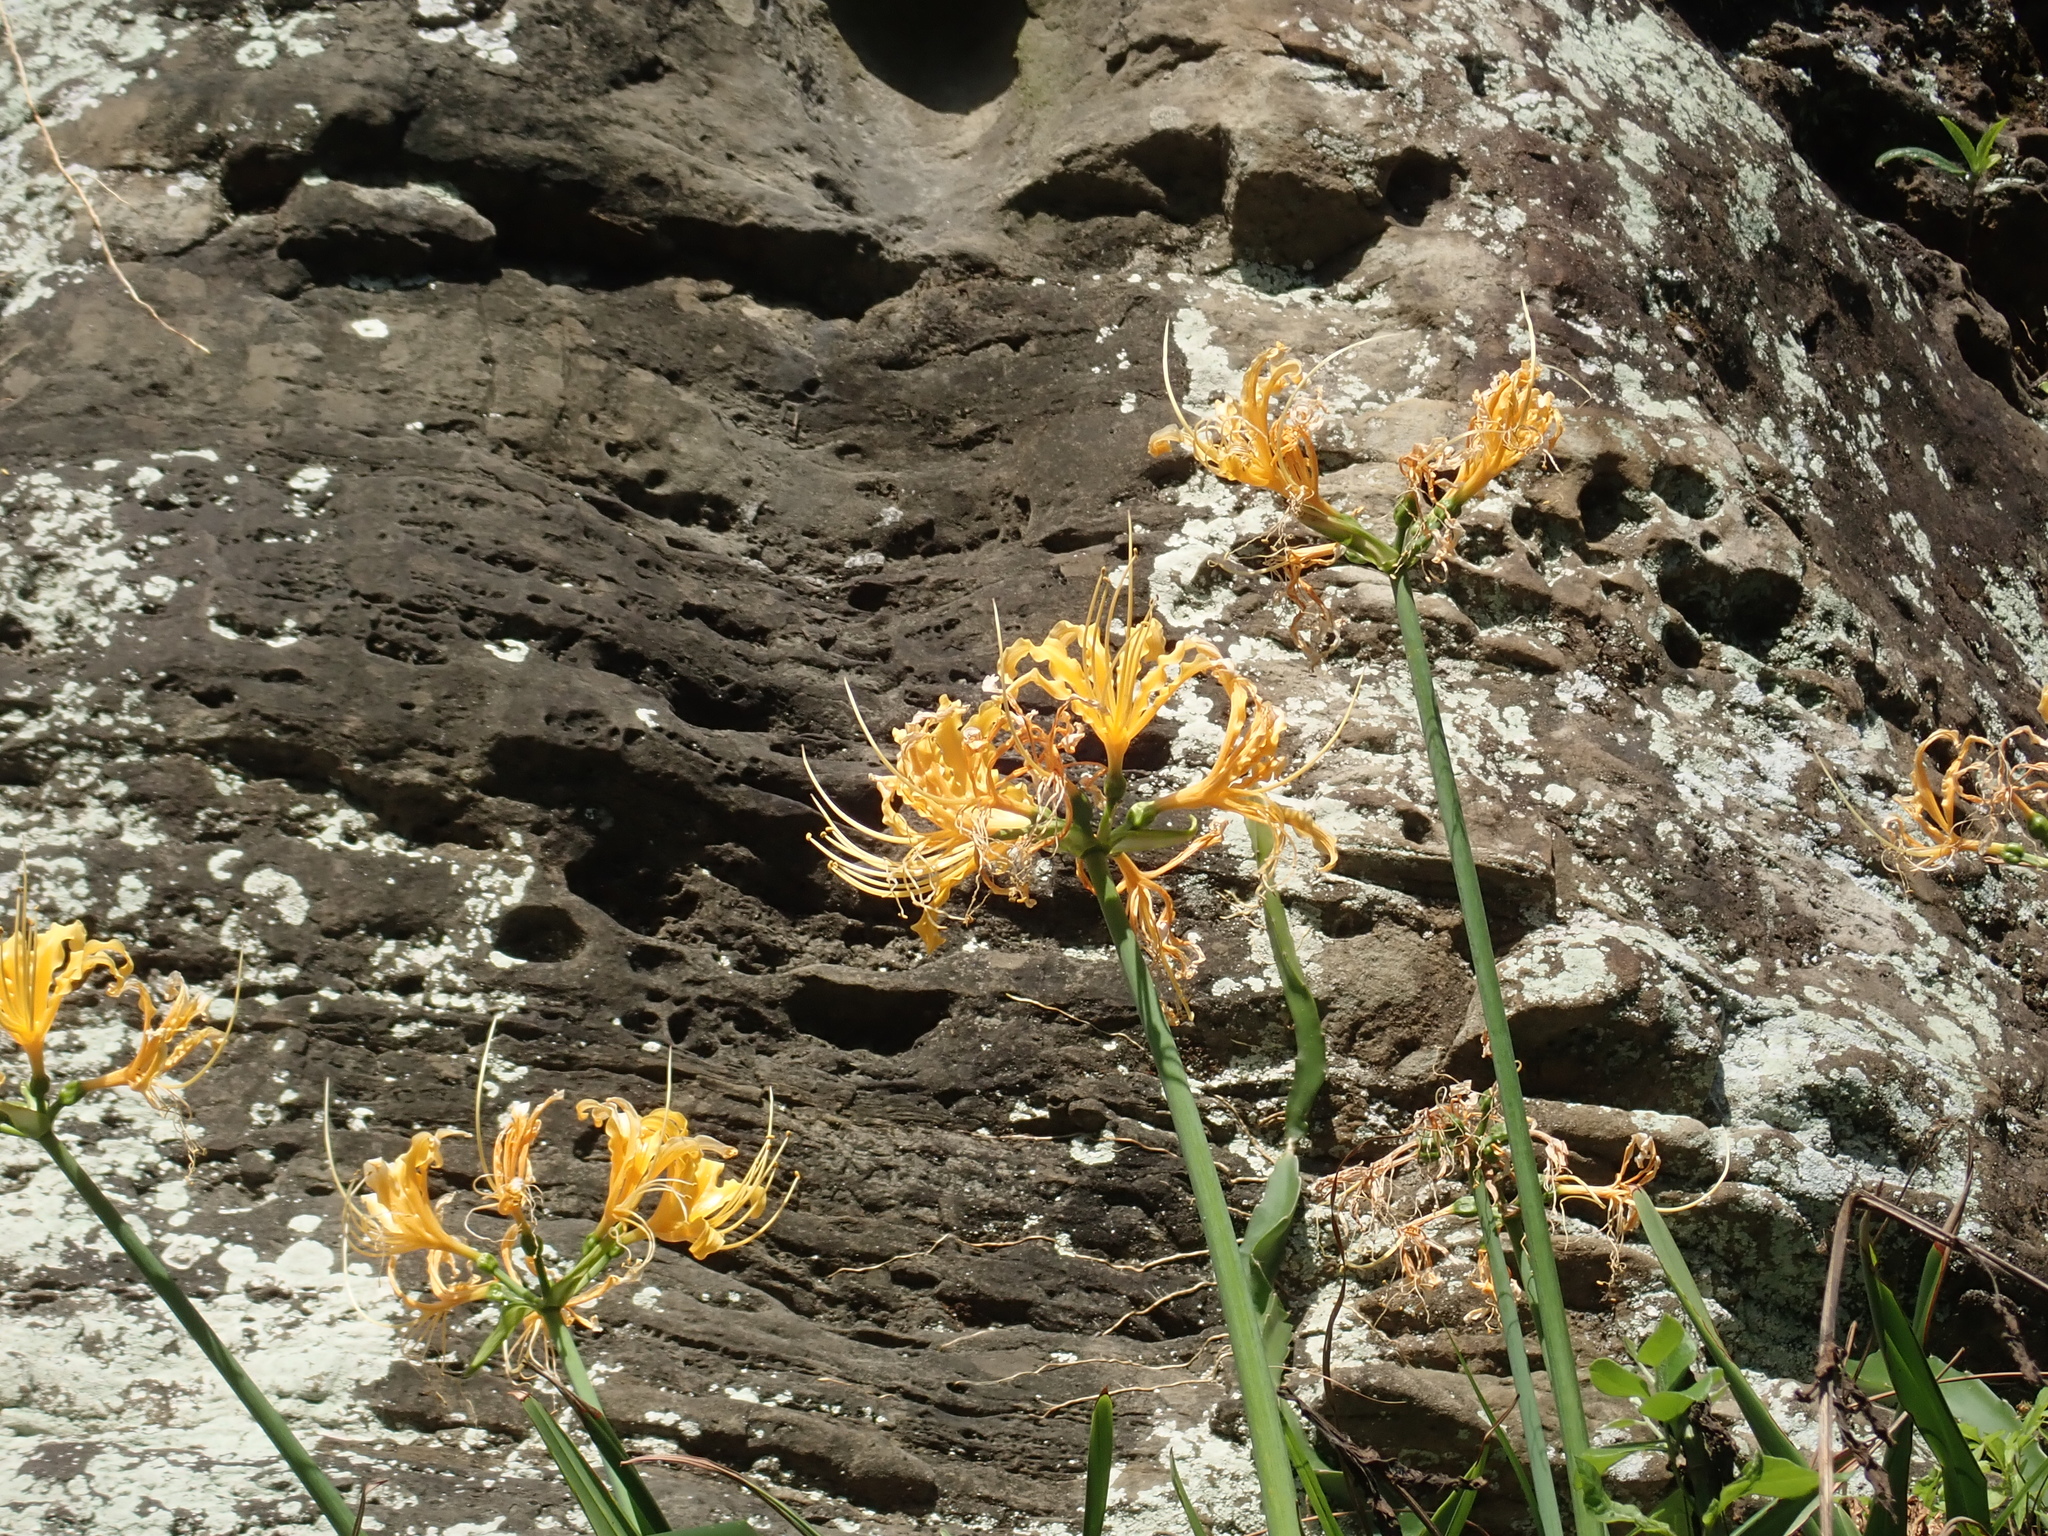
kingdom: Plantae
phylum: Tracheophyta
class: Liliopsida
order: Asparagales
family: Amaryllidaceae
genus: Lycoris
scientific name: Lycoris aurea
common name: Golden hurricane-lily
